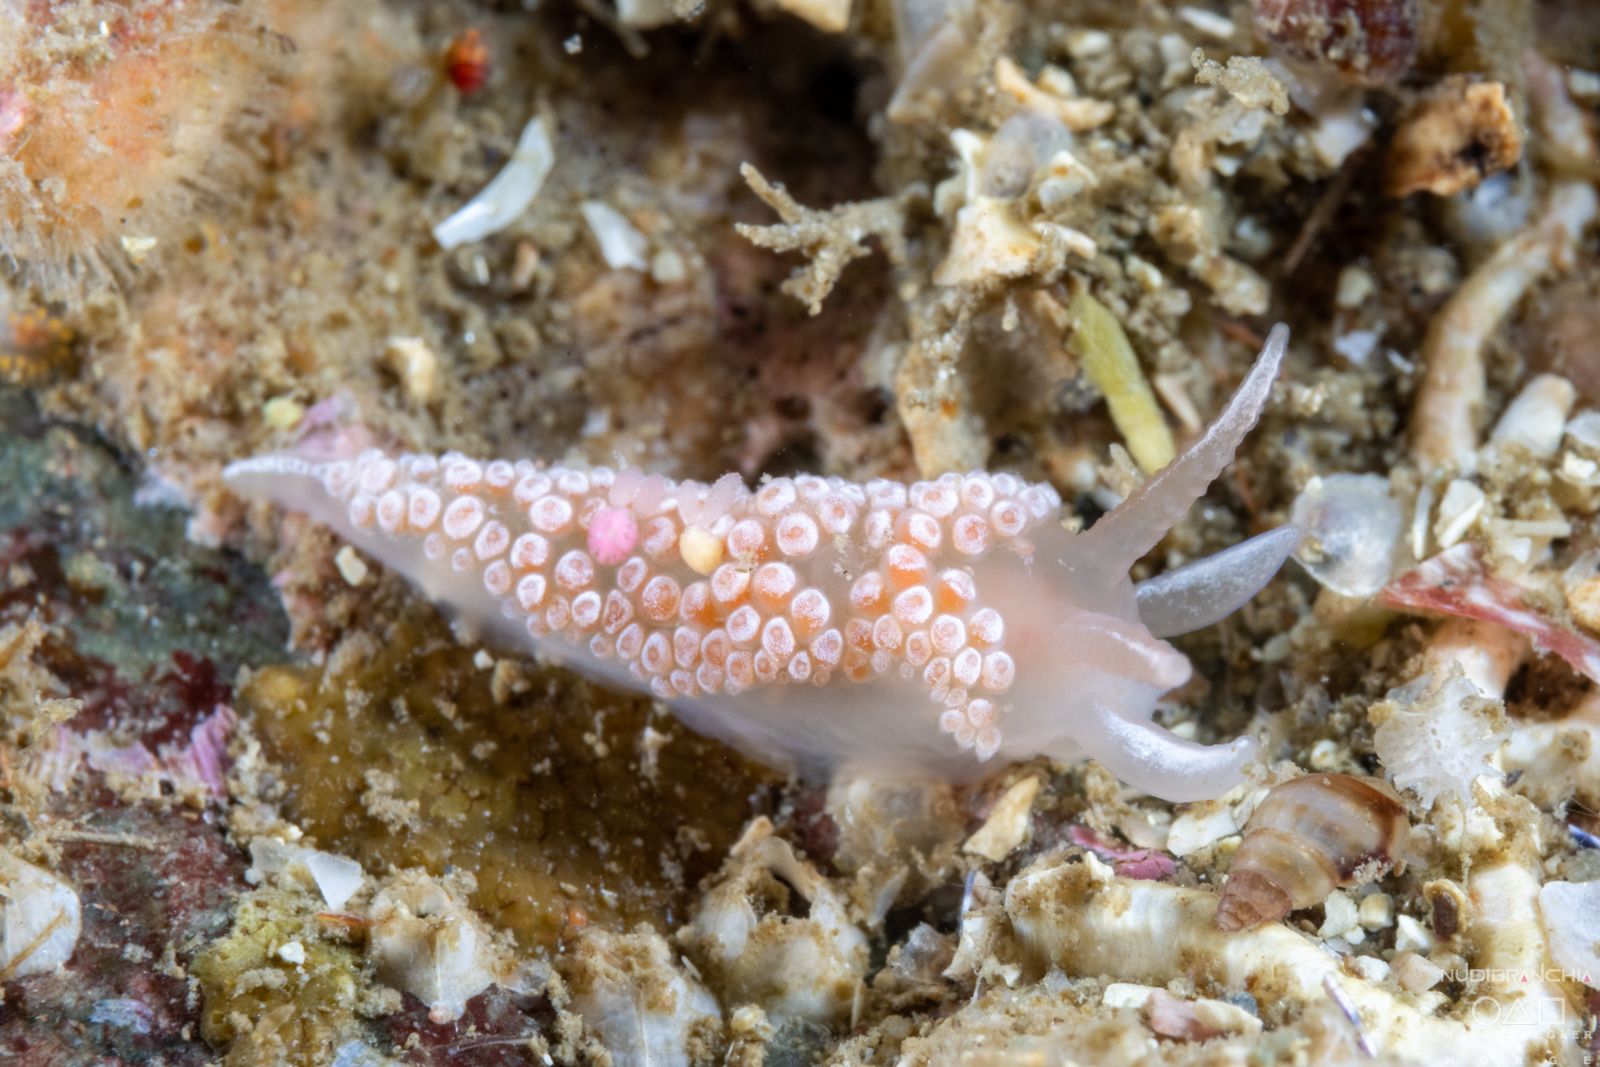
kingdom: Animalia
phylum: Mollusca
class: Gastropoda
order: Nudibranchia
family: Coryphellidae
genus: Coryphella
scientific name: Coryphella verrucosa
